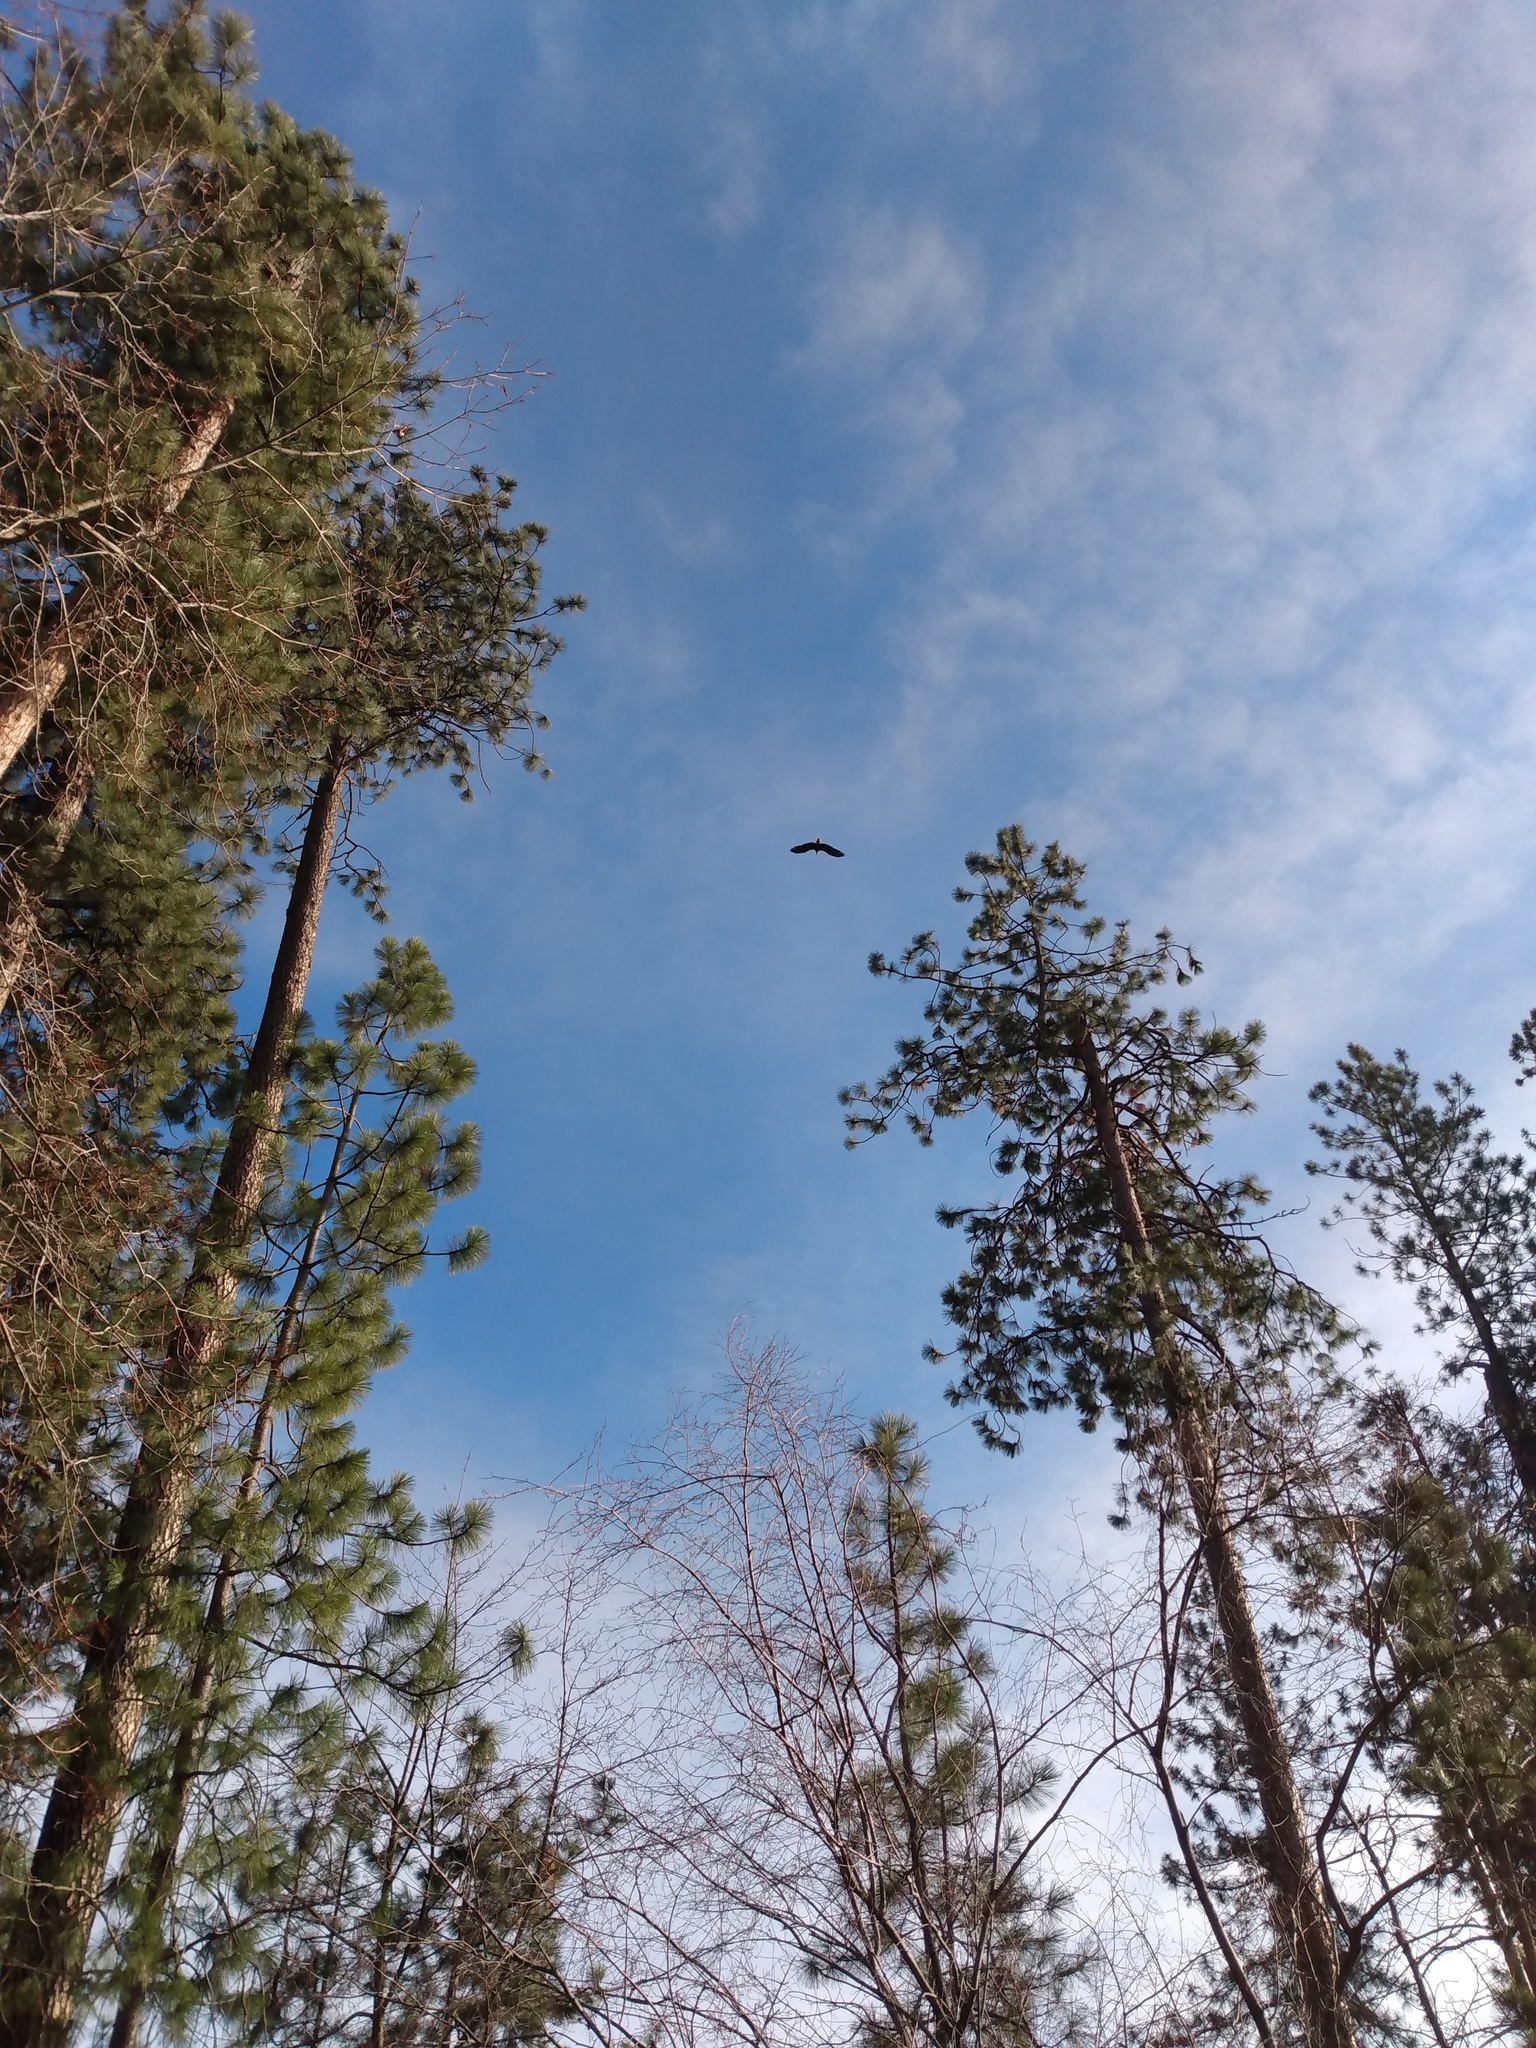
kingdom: Animalia
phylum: Chordata
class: Aves
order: Accipitriformes
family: Accipitridae
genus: Haliaeetus
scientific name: Haliaeetus leucocephalus
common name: Bald eagle
